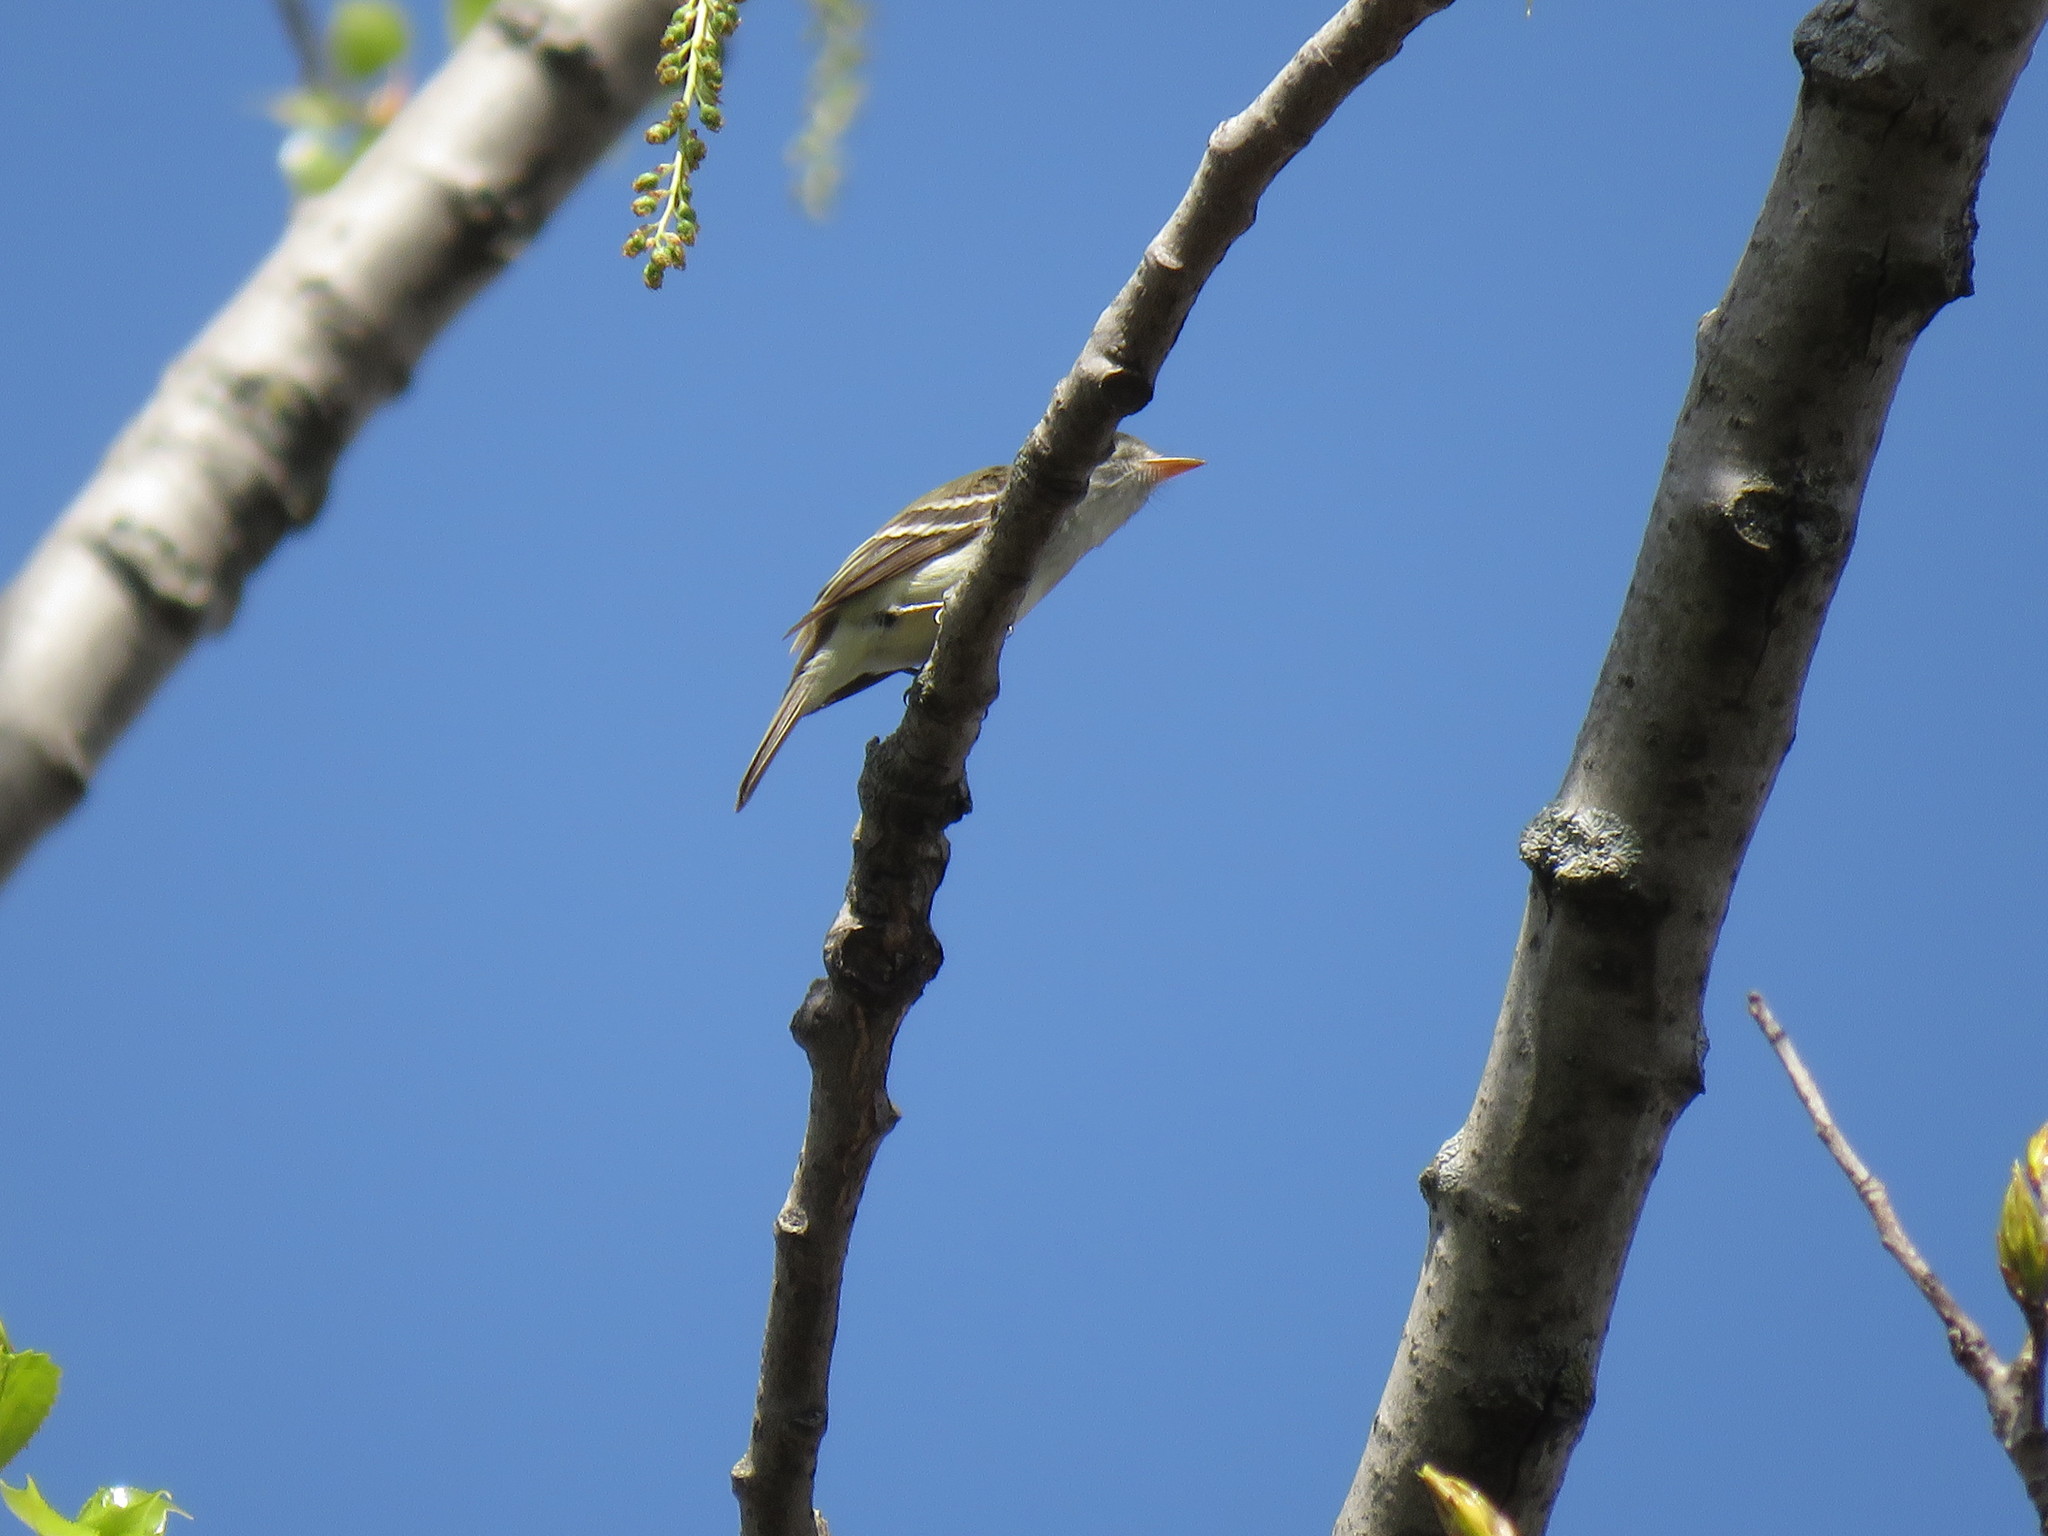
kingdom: Animalia
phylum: Chordata
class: Aves
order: Passeriformes
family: Tyrannidae
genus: Empidonax
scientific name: Empidonax minimus
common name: Least flycatcher
